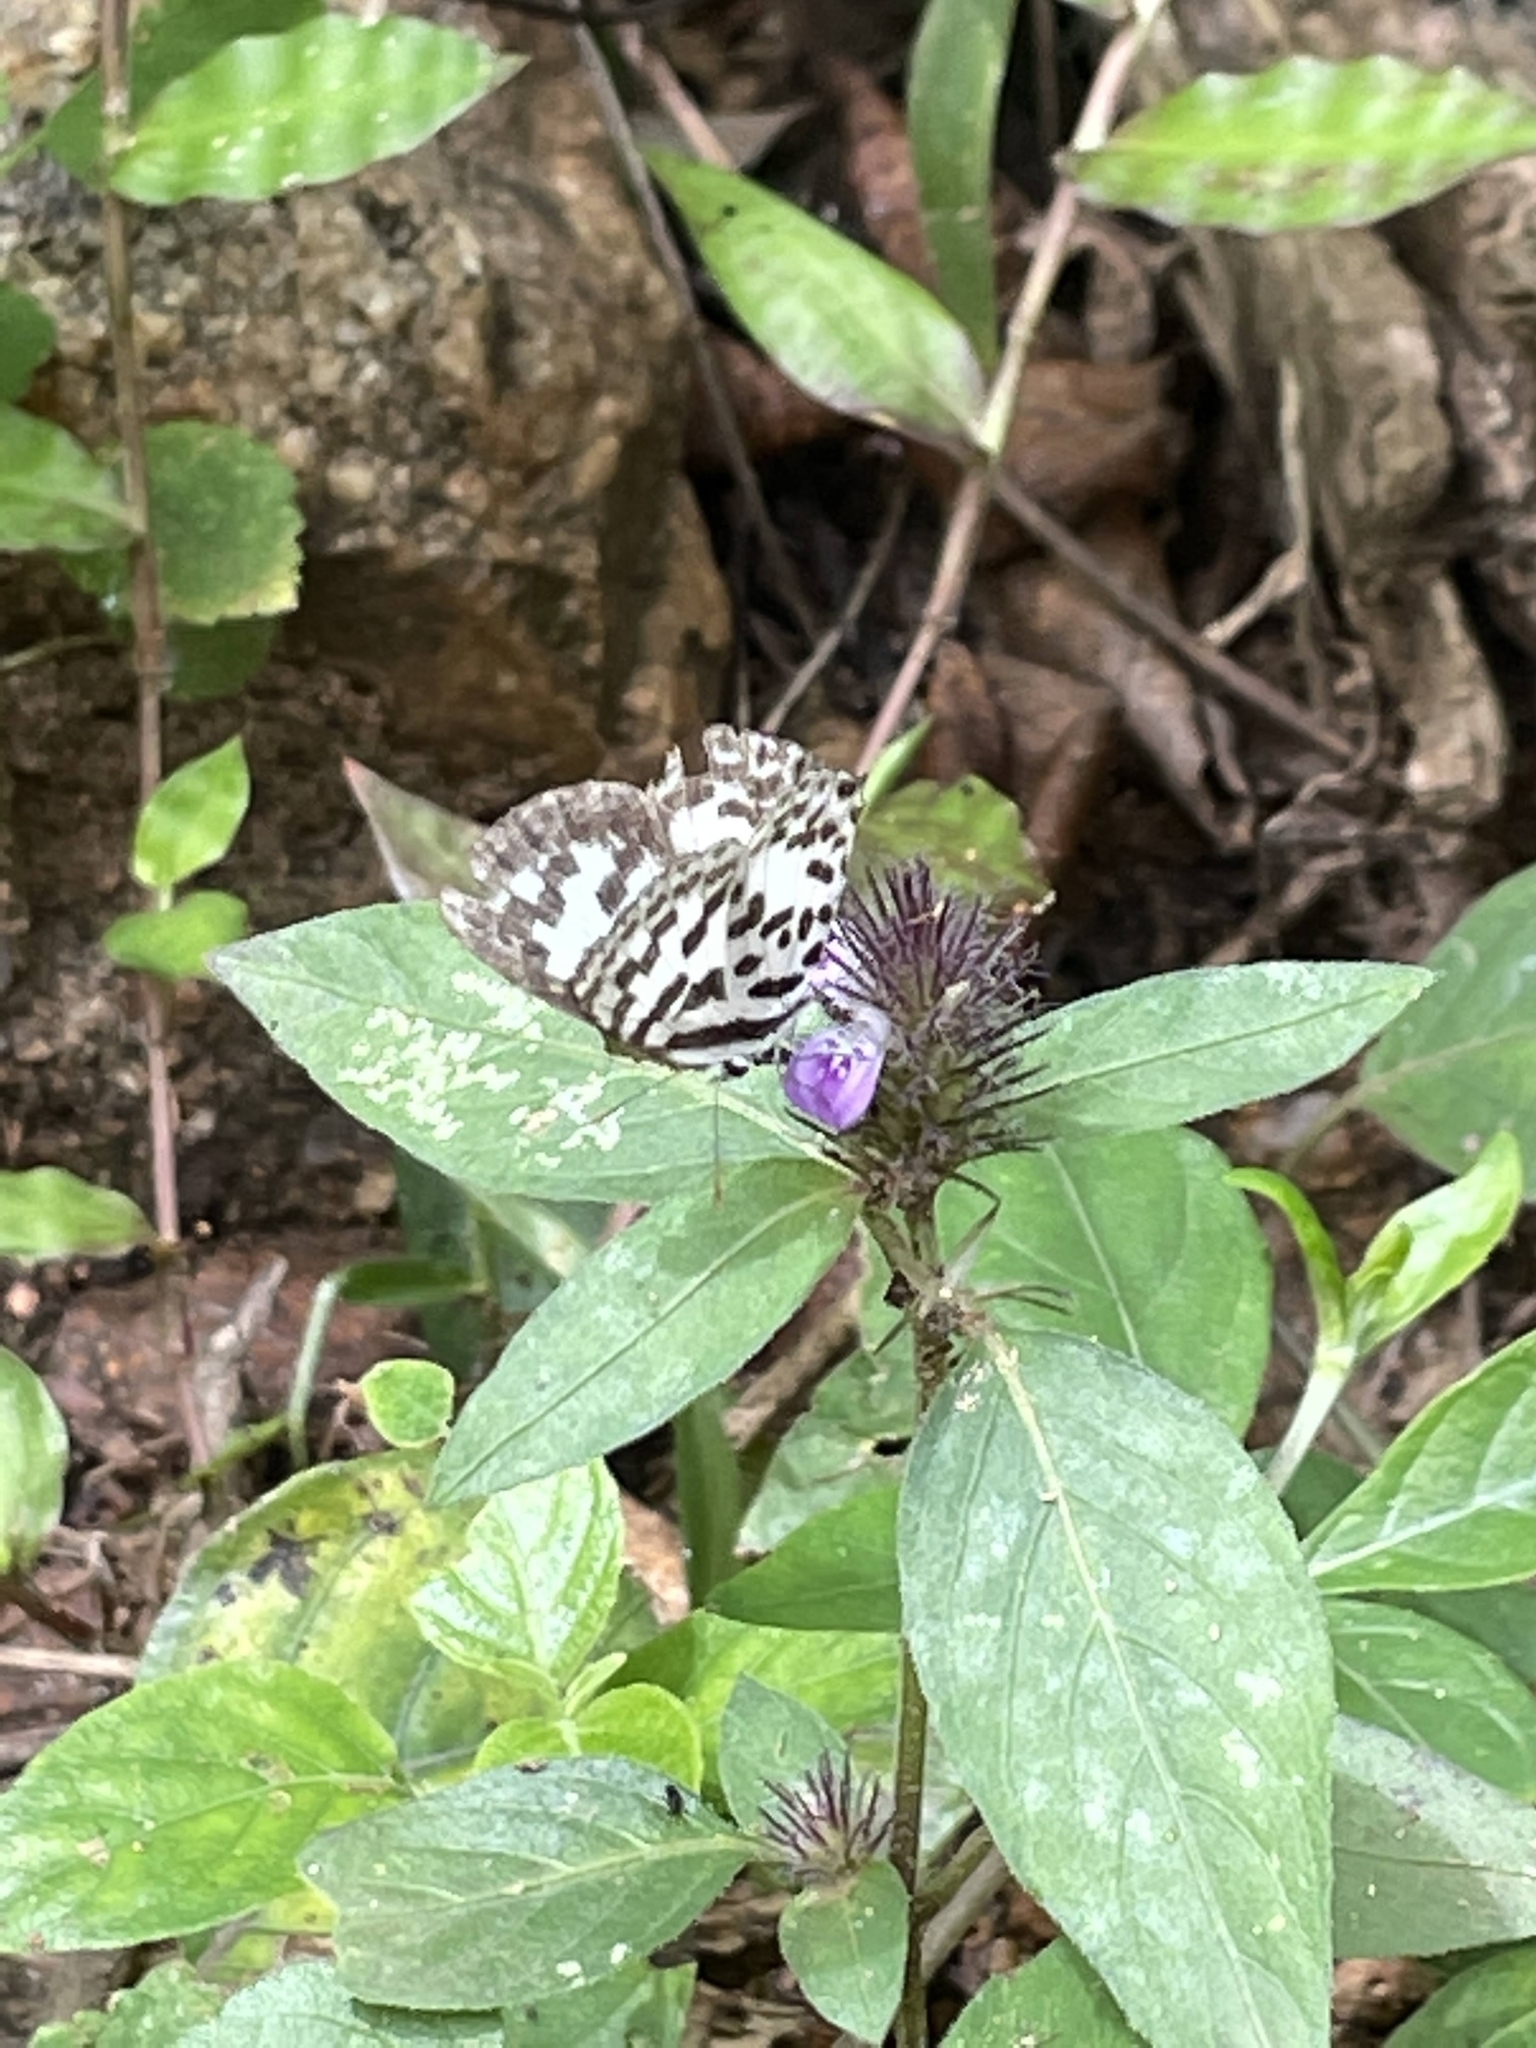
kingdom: Animalia
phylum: Arthropoda
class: Insecta
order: Lepidoptera
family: Lycaenidae
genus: Castalius
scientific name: Castalius rosimon
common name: Common pierrot
